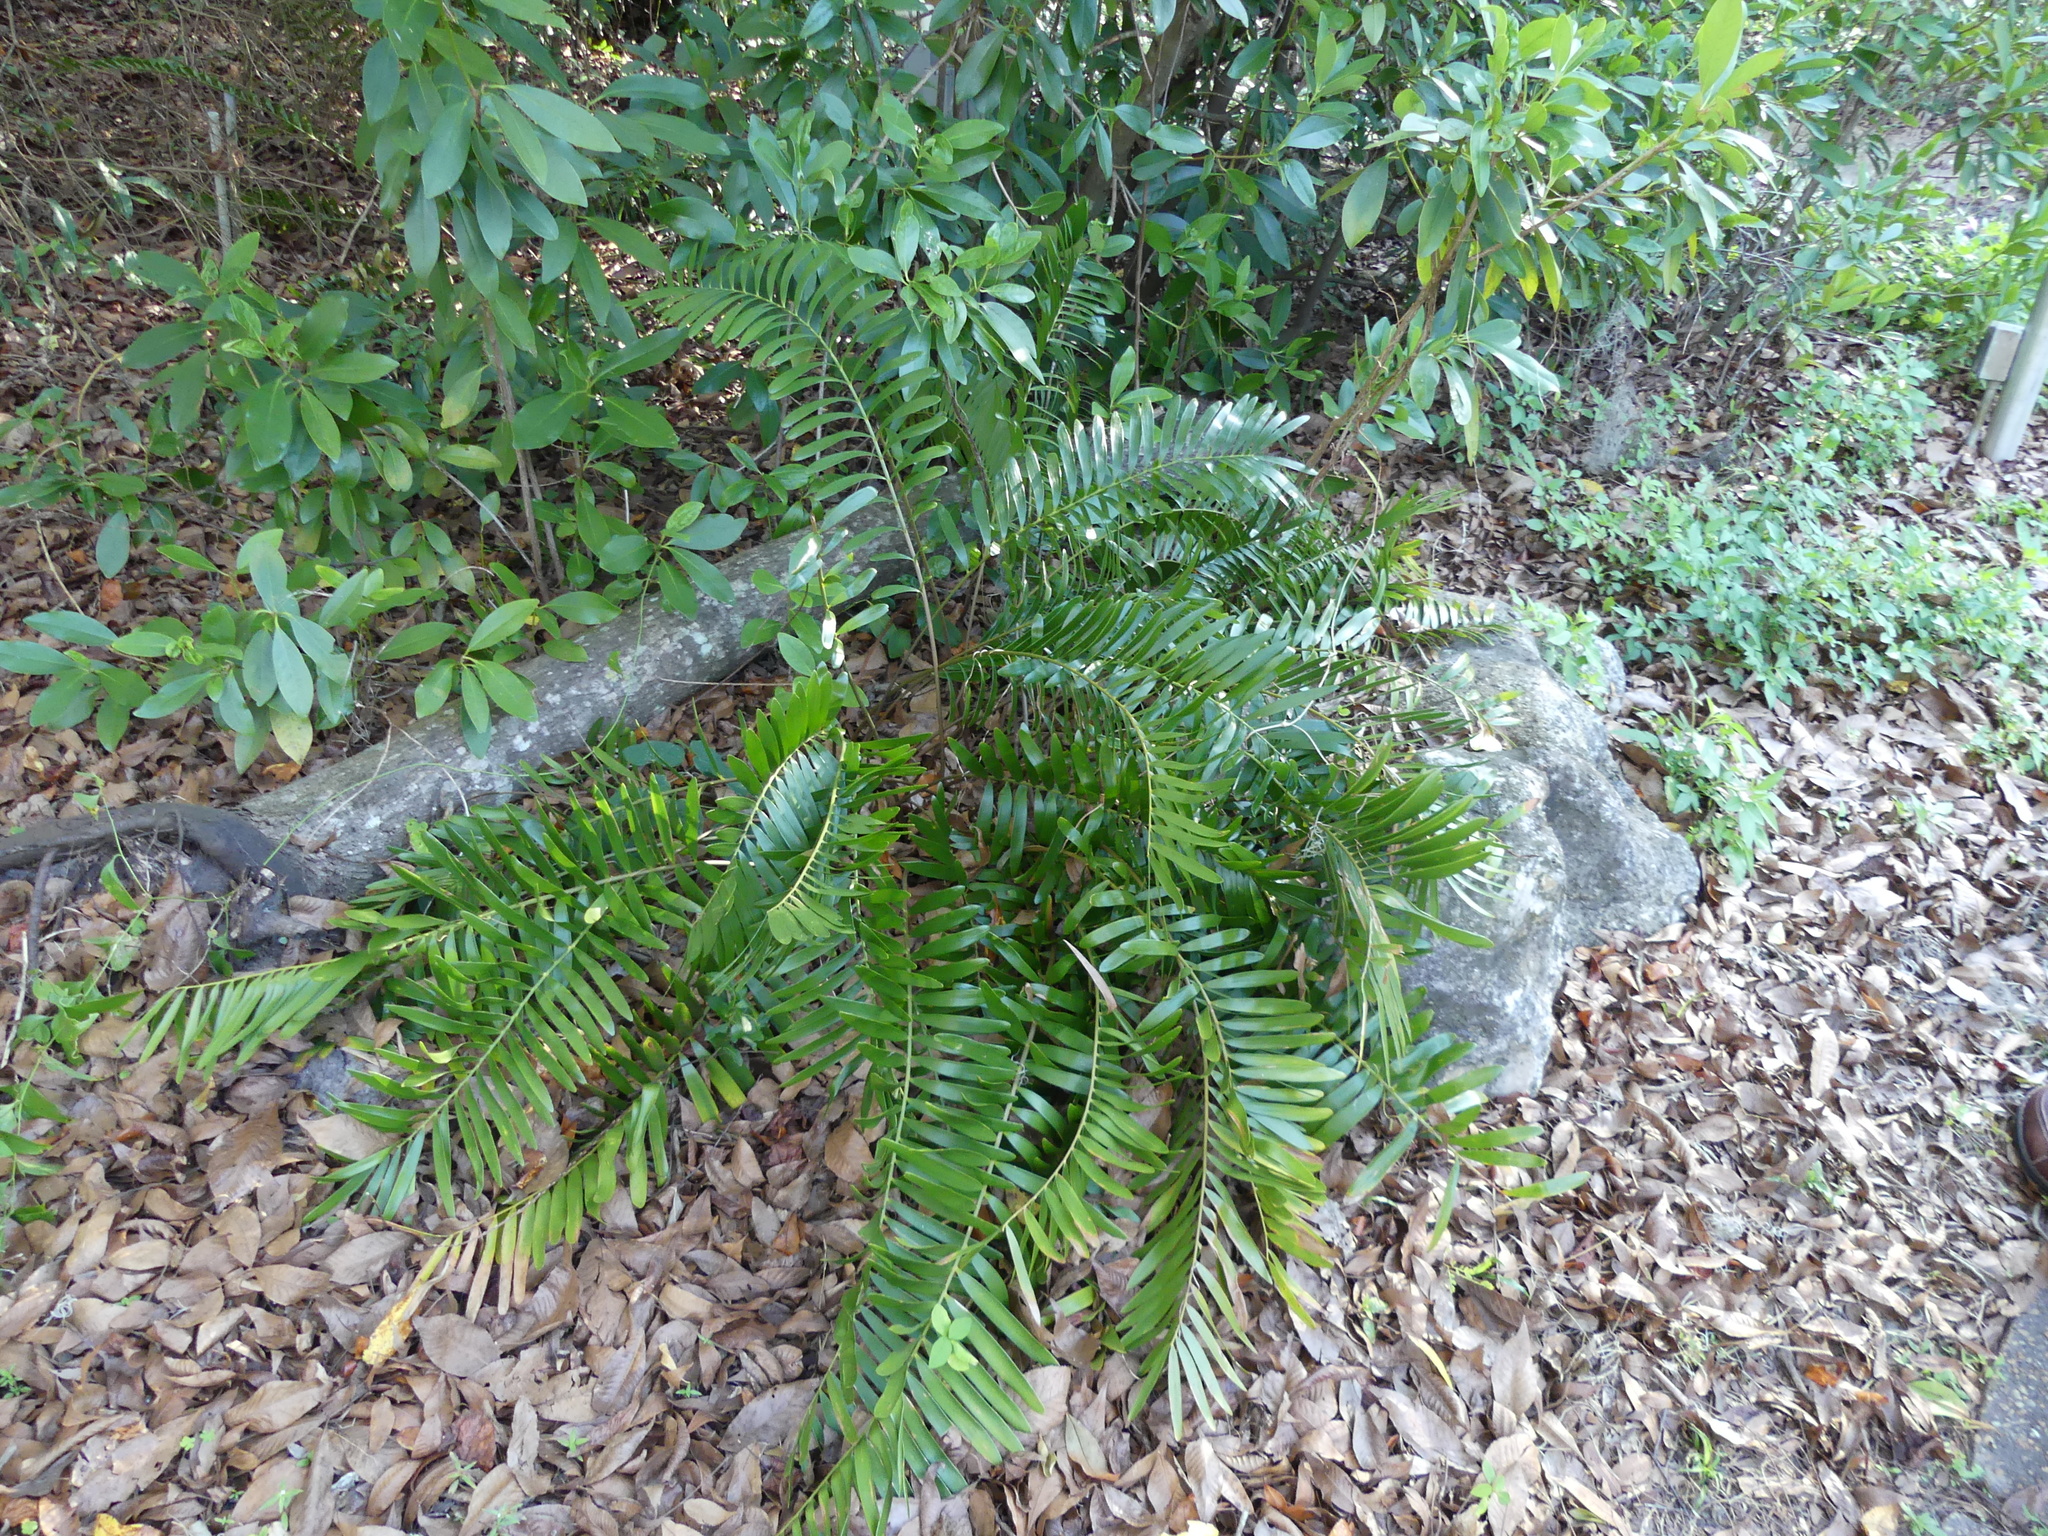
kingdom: Plantae
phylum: Tracheophyta
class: Cycadopsida
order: Cycadales
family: Zamiaceae
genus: Zamia
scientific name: Zamia integrifolia
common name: Florida arrowroot
